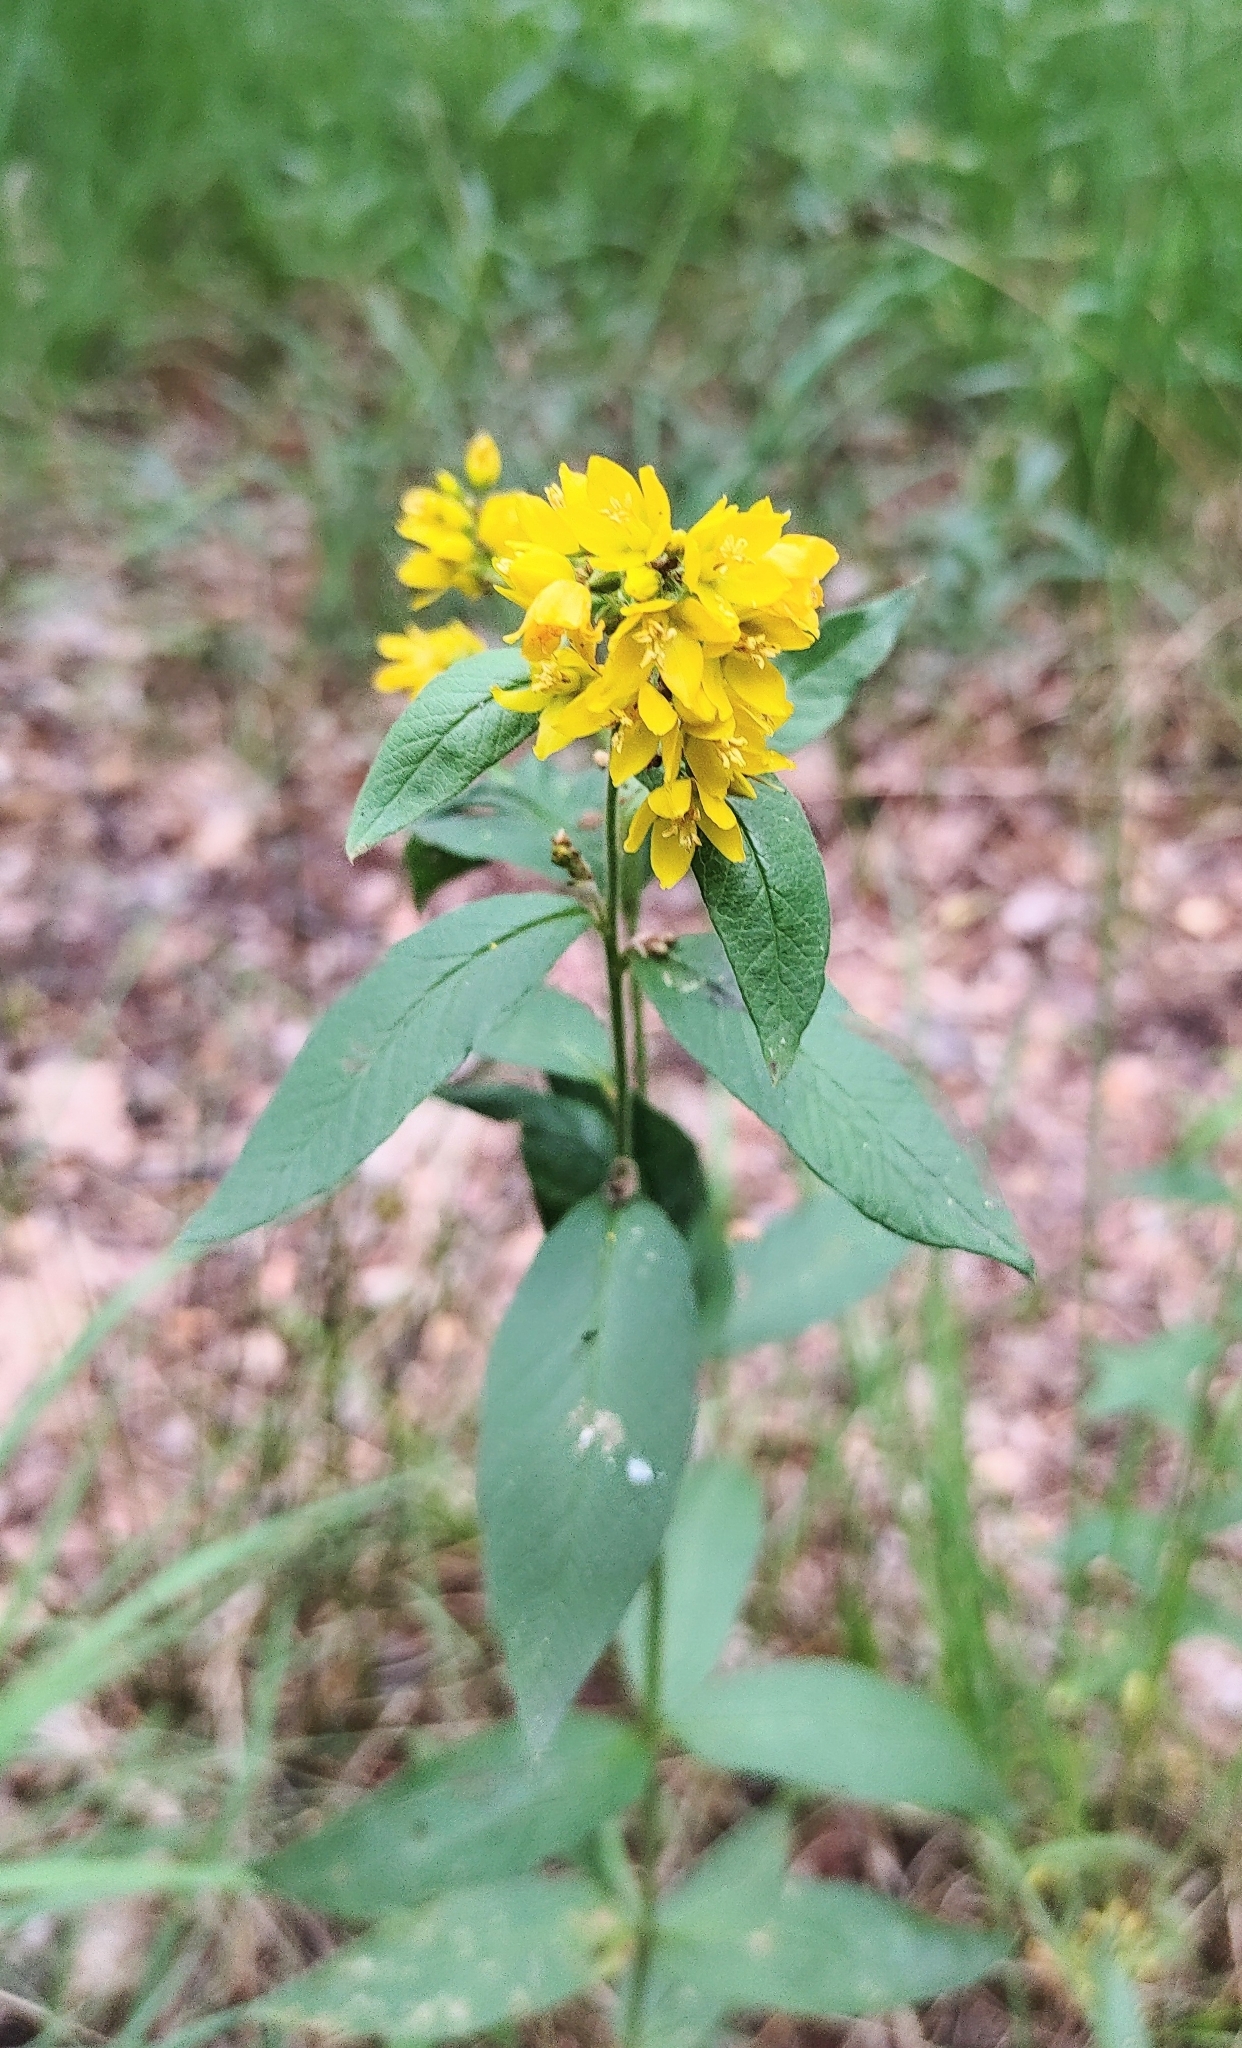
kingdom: Plantae
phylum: Tracheophyta
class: Magnoliopsida
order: Ericales
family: Primulaceae
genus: Lysimachia
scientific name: Lysimachia vulgaris
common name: Yellow loosestrife
